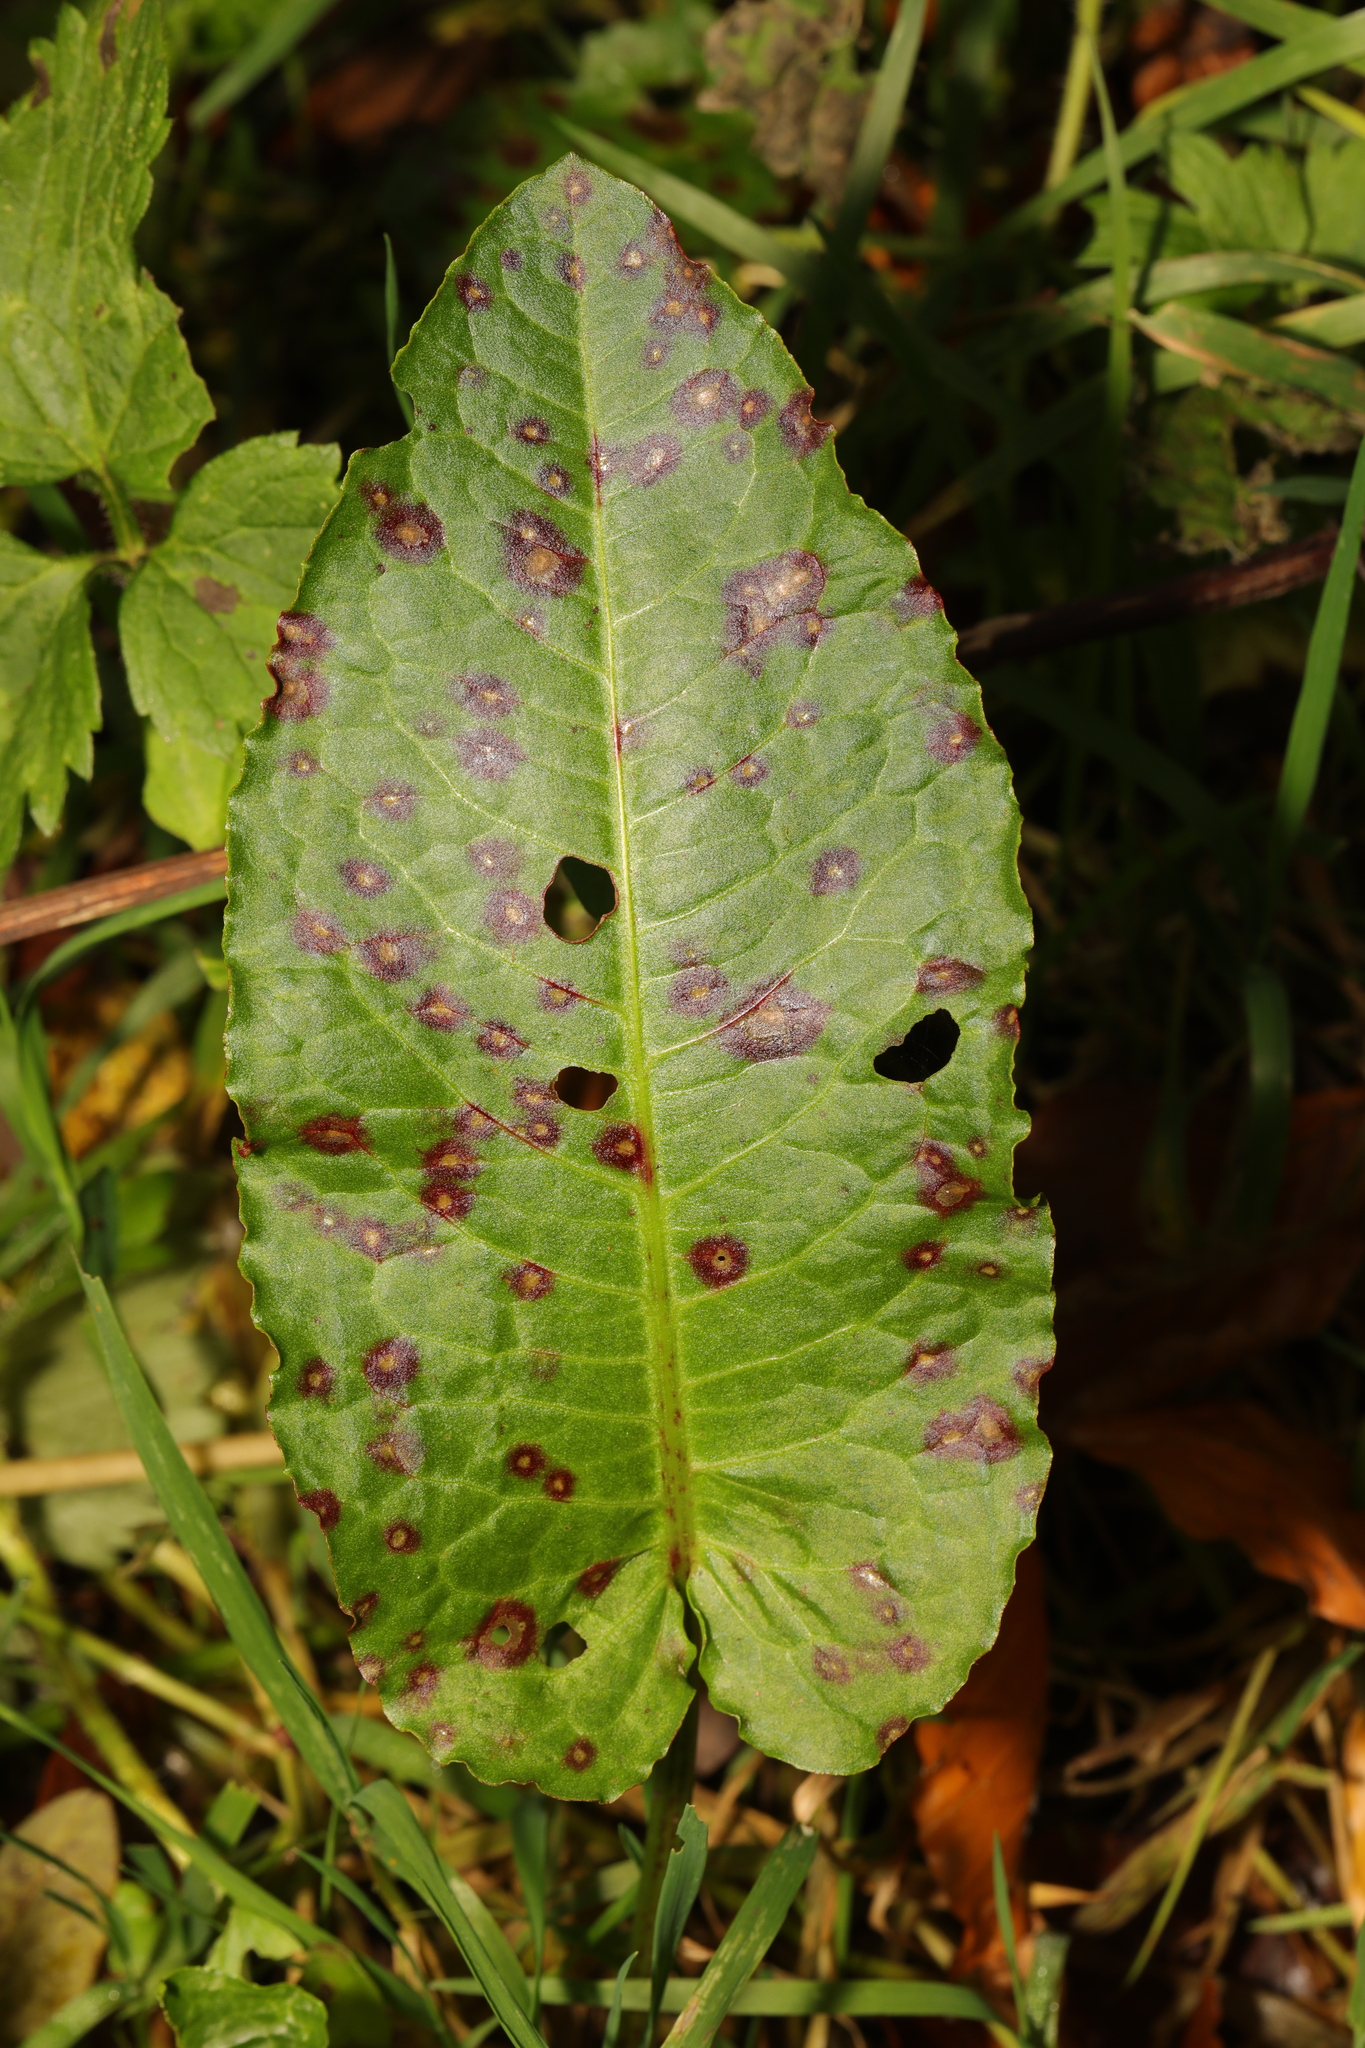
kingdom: Plantae
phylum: Tracheophyta
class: Magnoliopsida
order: Caryophyllales
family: Polygonaceae
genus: Rumex
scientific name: Rumex obtusifolius
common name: Bitter dock
